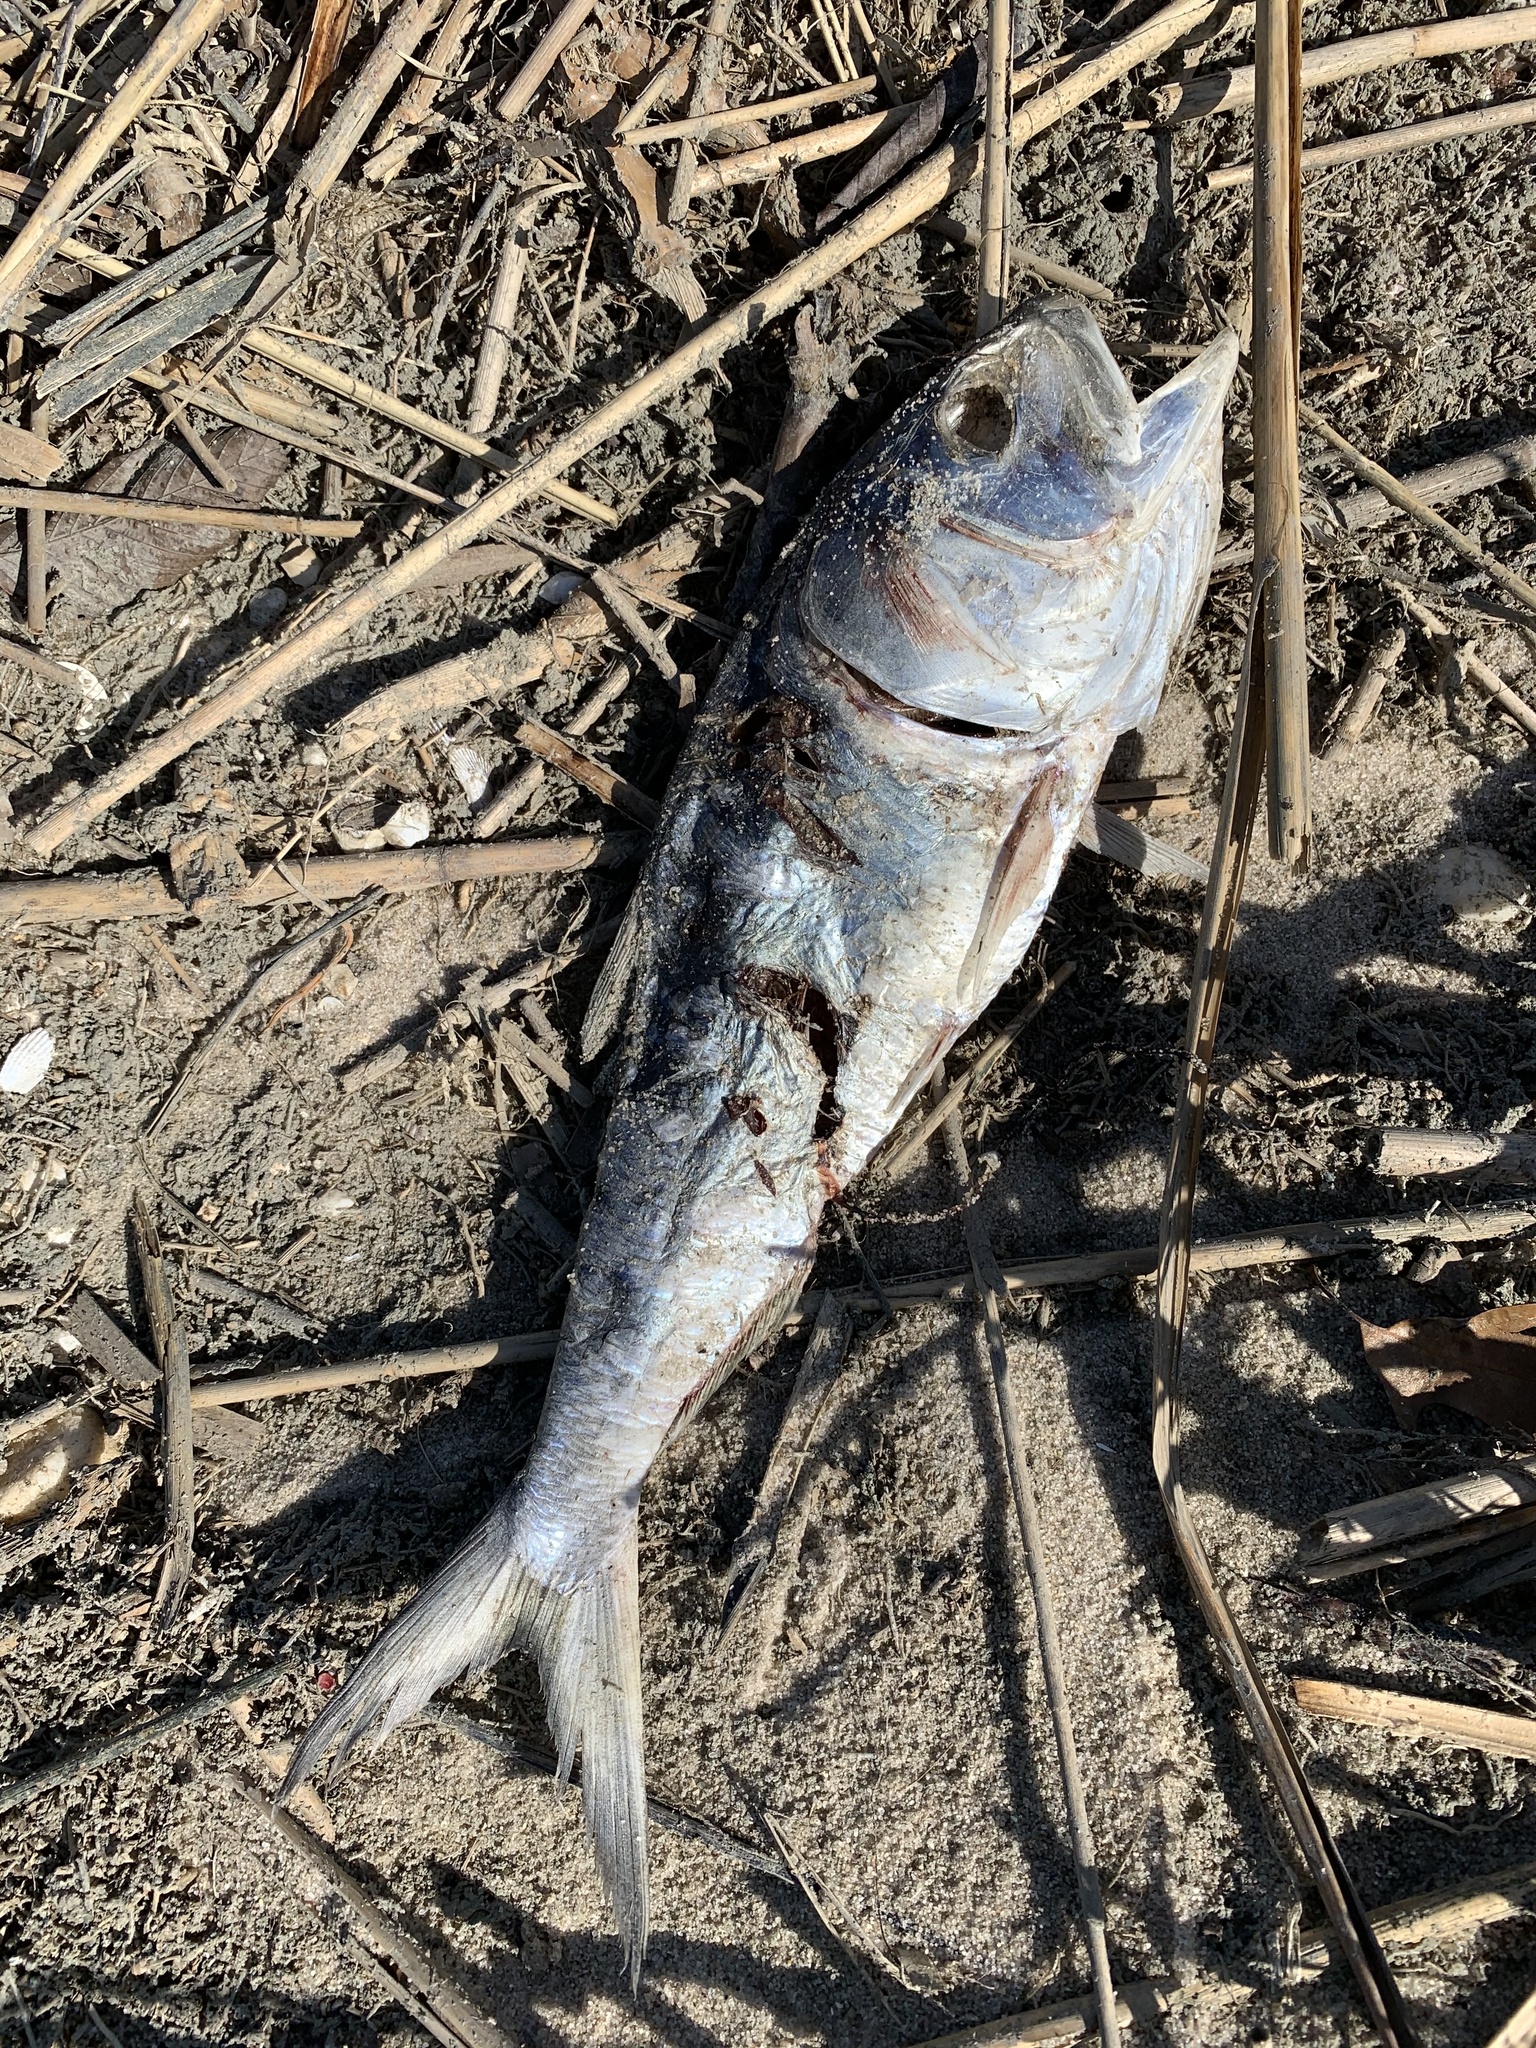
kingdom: Animalia
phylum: Chordata
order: Clupeiformes
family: Clupeidae
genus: Brevoortia
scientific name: Brevoortia tyrannus
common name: Atlantic menhaden
